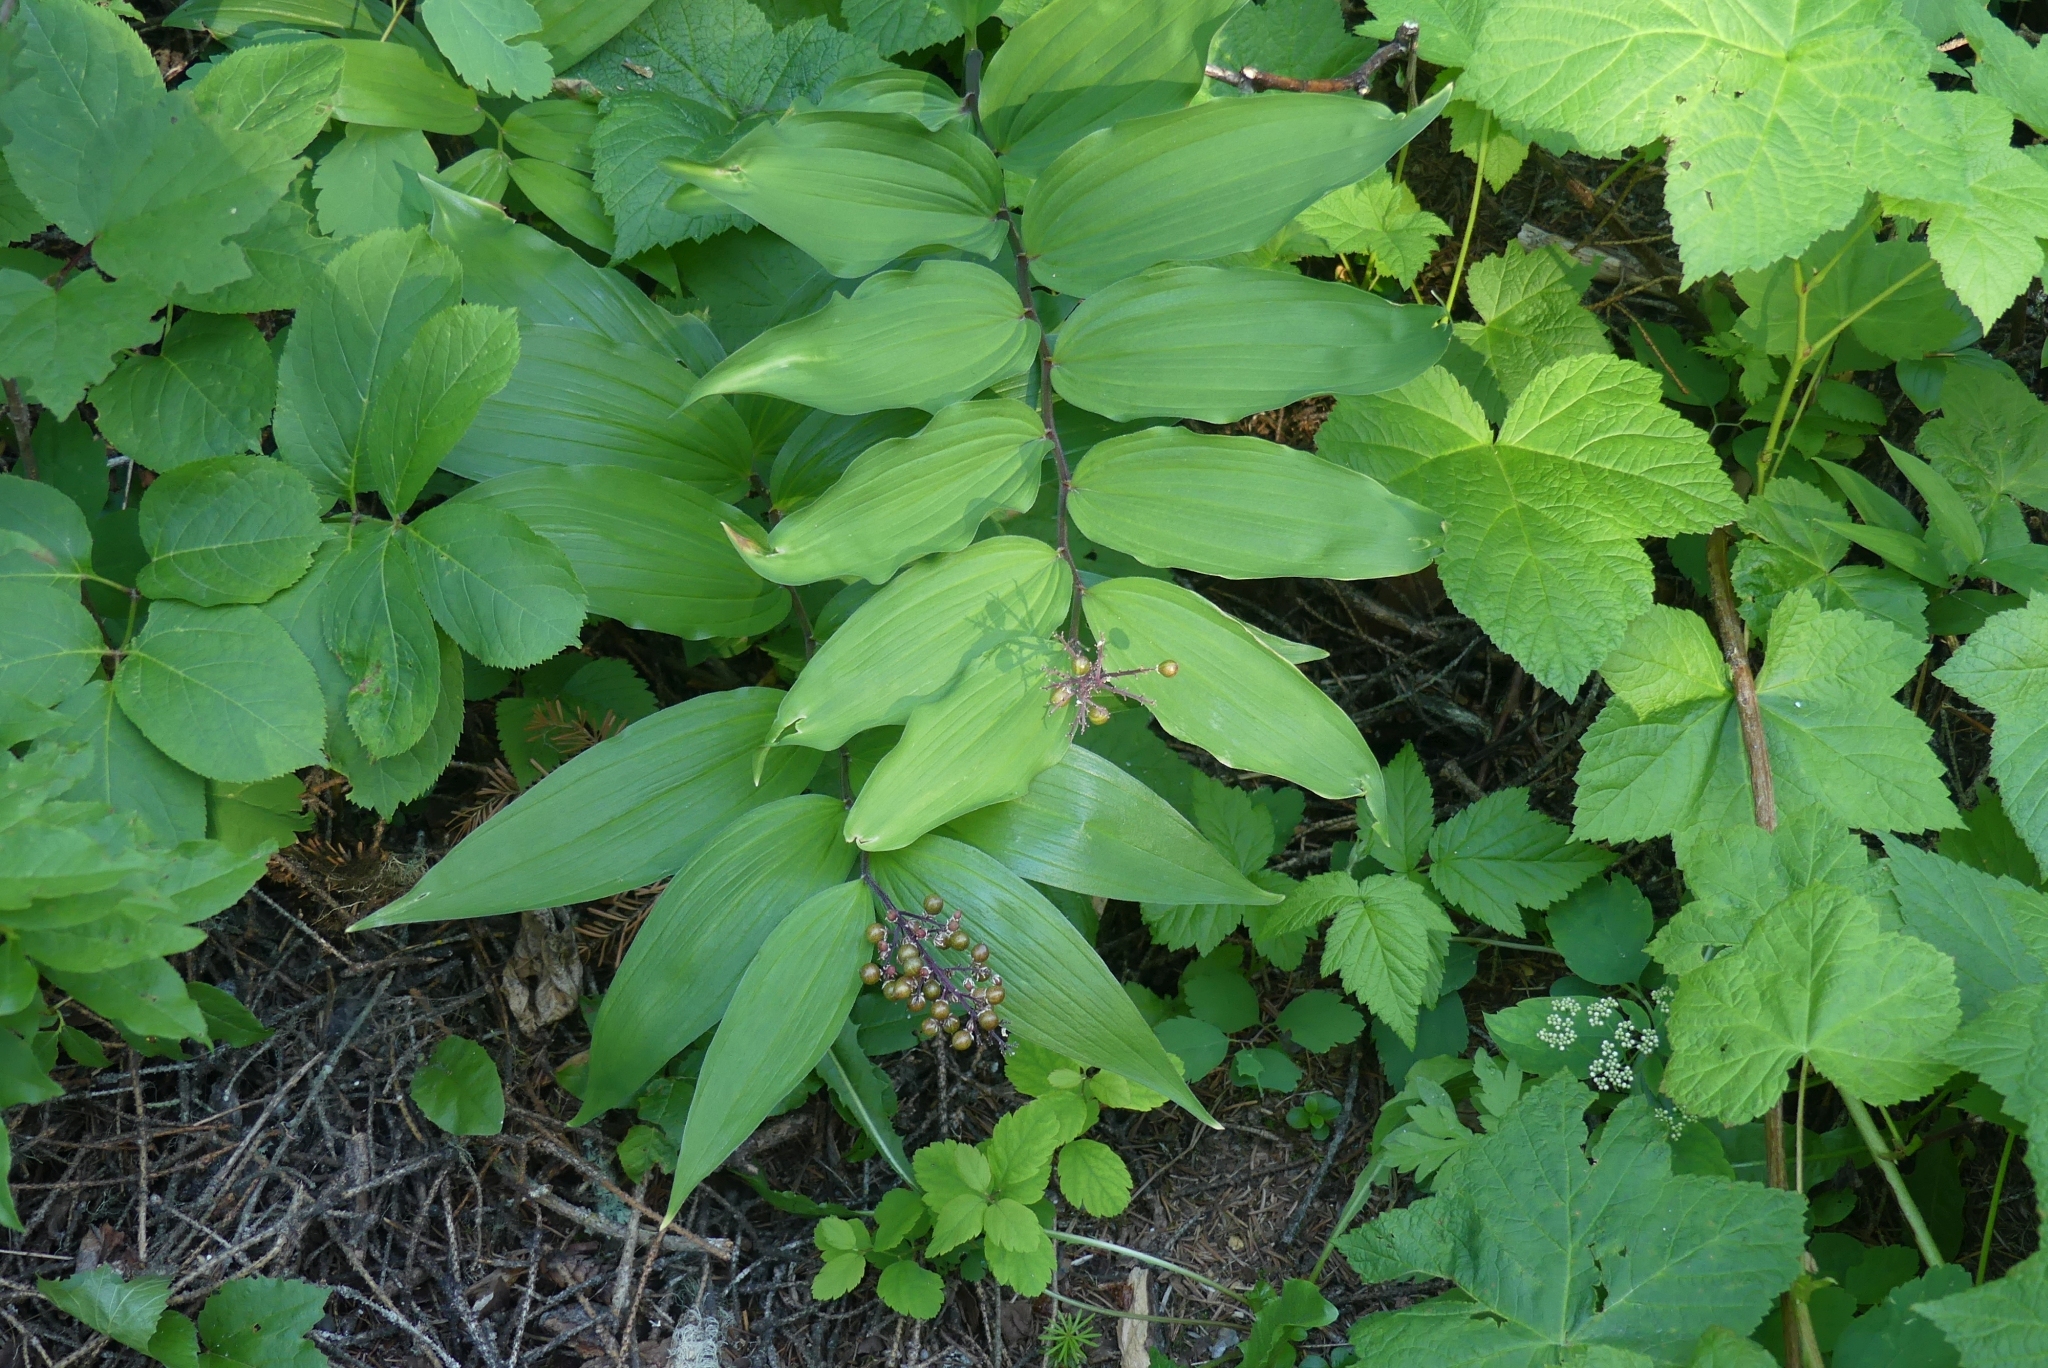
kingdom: Plantae
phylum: Tracheophyta
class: Liliopsida
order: Asparagales
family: Asparagaceae
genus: Maianthemum
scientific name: Maianthemum racemosum
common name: False spikenard
